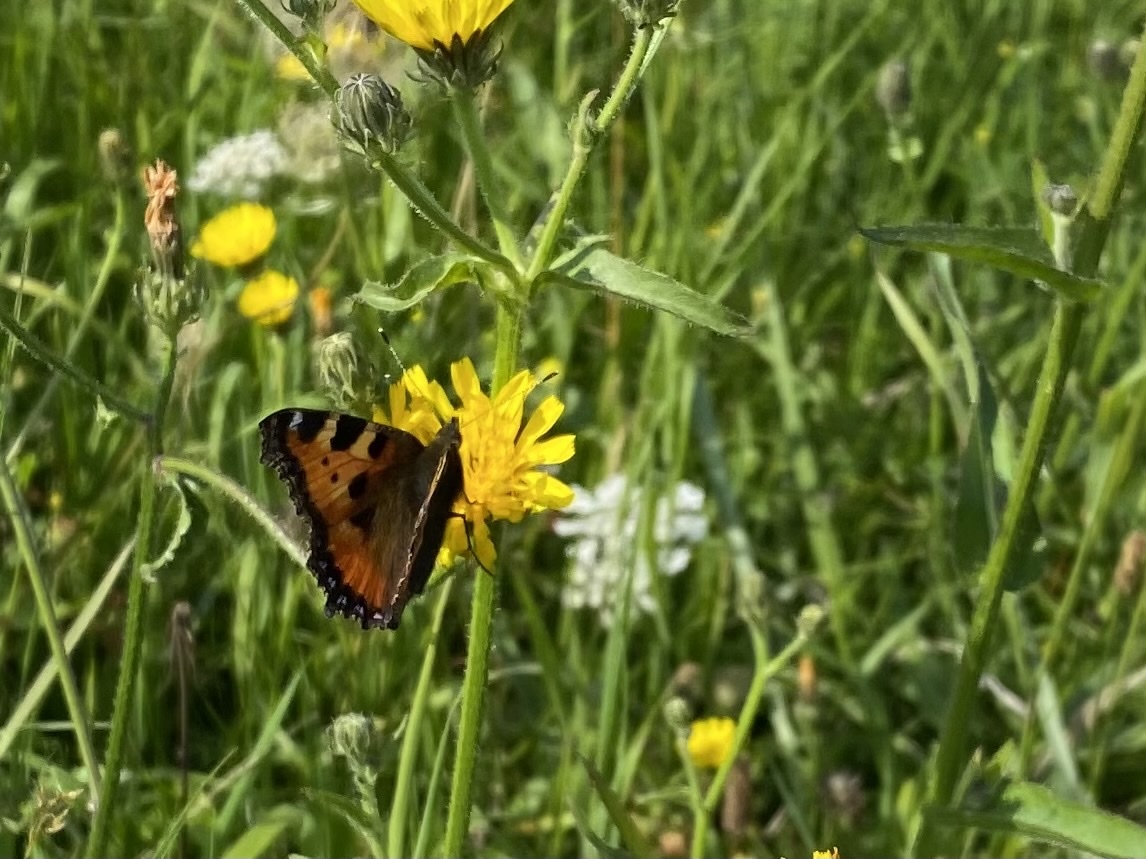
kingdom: Animalia
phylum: Arthropoda
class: Insecta
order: Lepidoptera
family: Nymphalidae
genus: Aglais
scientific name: Aglais urticae
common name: Small tortoiseshell
